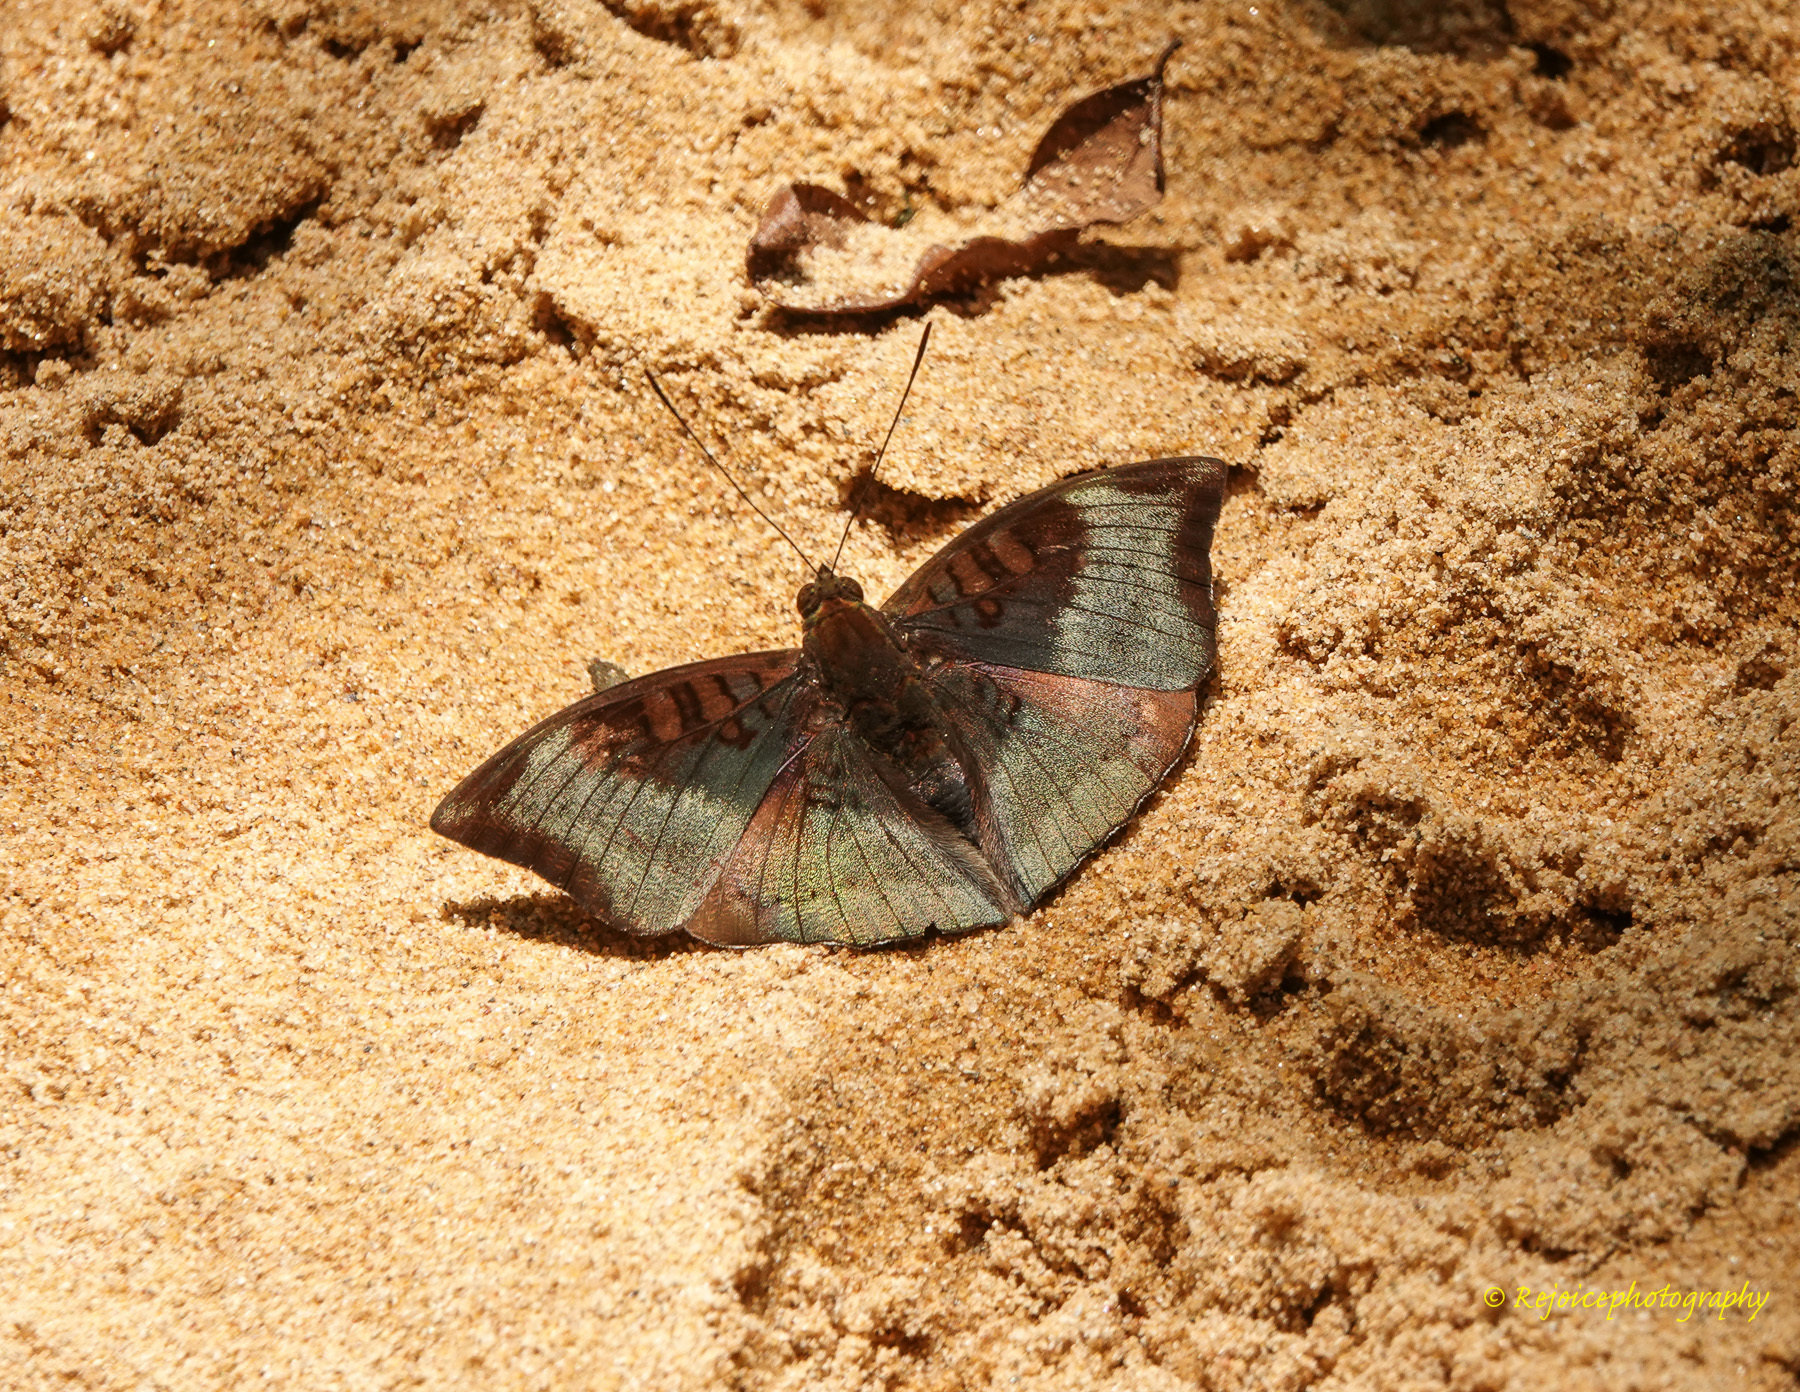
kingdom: Animalia
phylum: Arthropoda
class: Insecta
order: Lepidoptera
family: Nymphalidae
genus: Euthalia
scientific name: Euthalia monina
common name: Powdered baron
